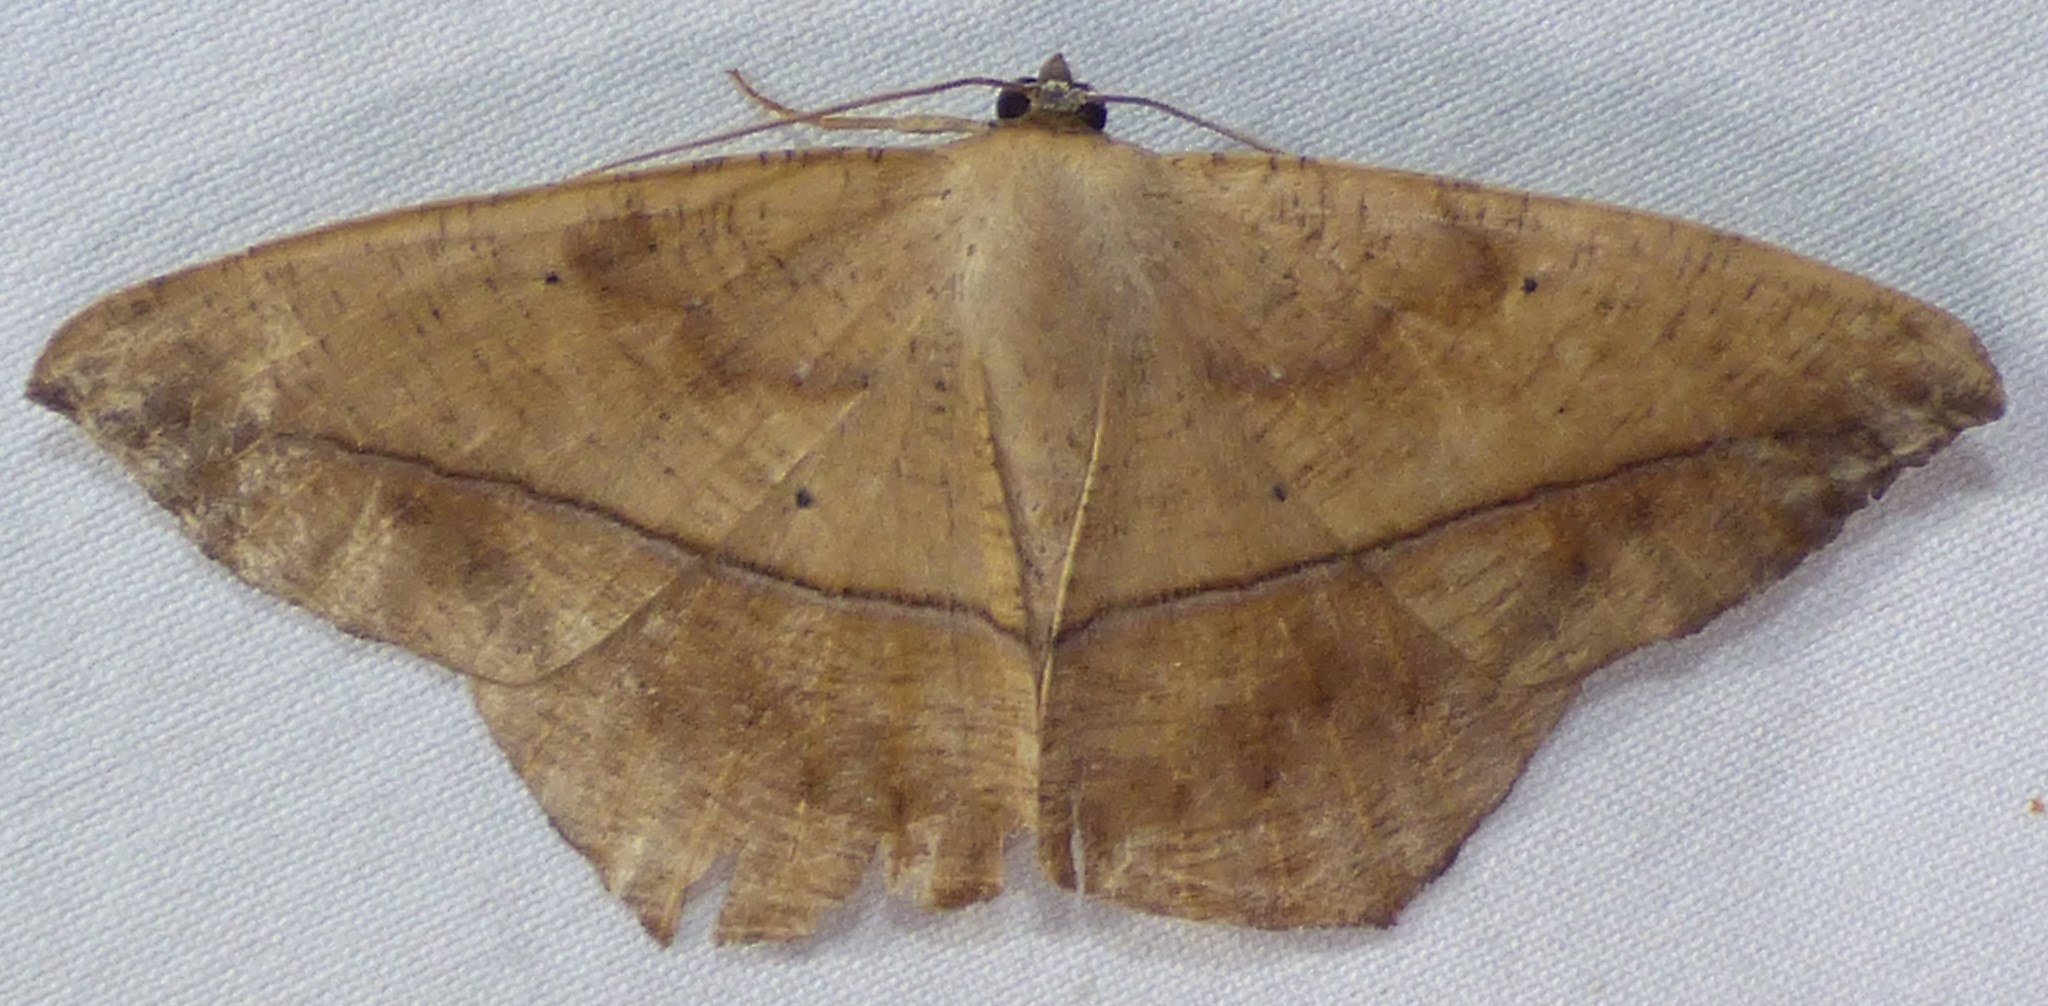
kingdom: Animalia
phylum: Arthropoda
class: Insecta
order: Lepidoptera
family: Geometridae
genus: Prochoerodes
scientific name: Prochoerodes lineola
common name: Large maple spanworm
